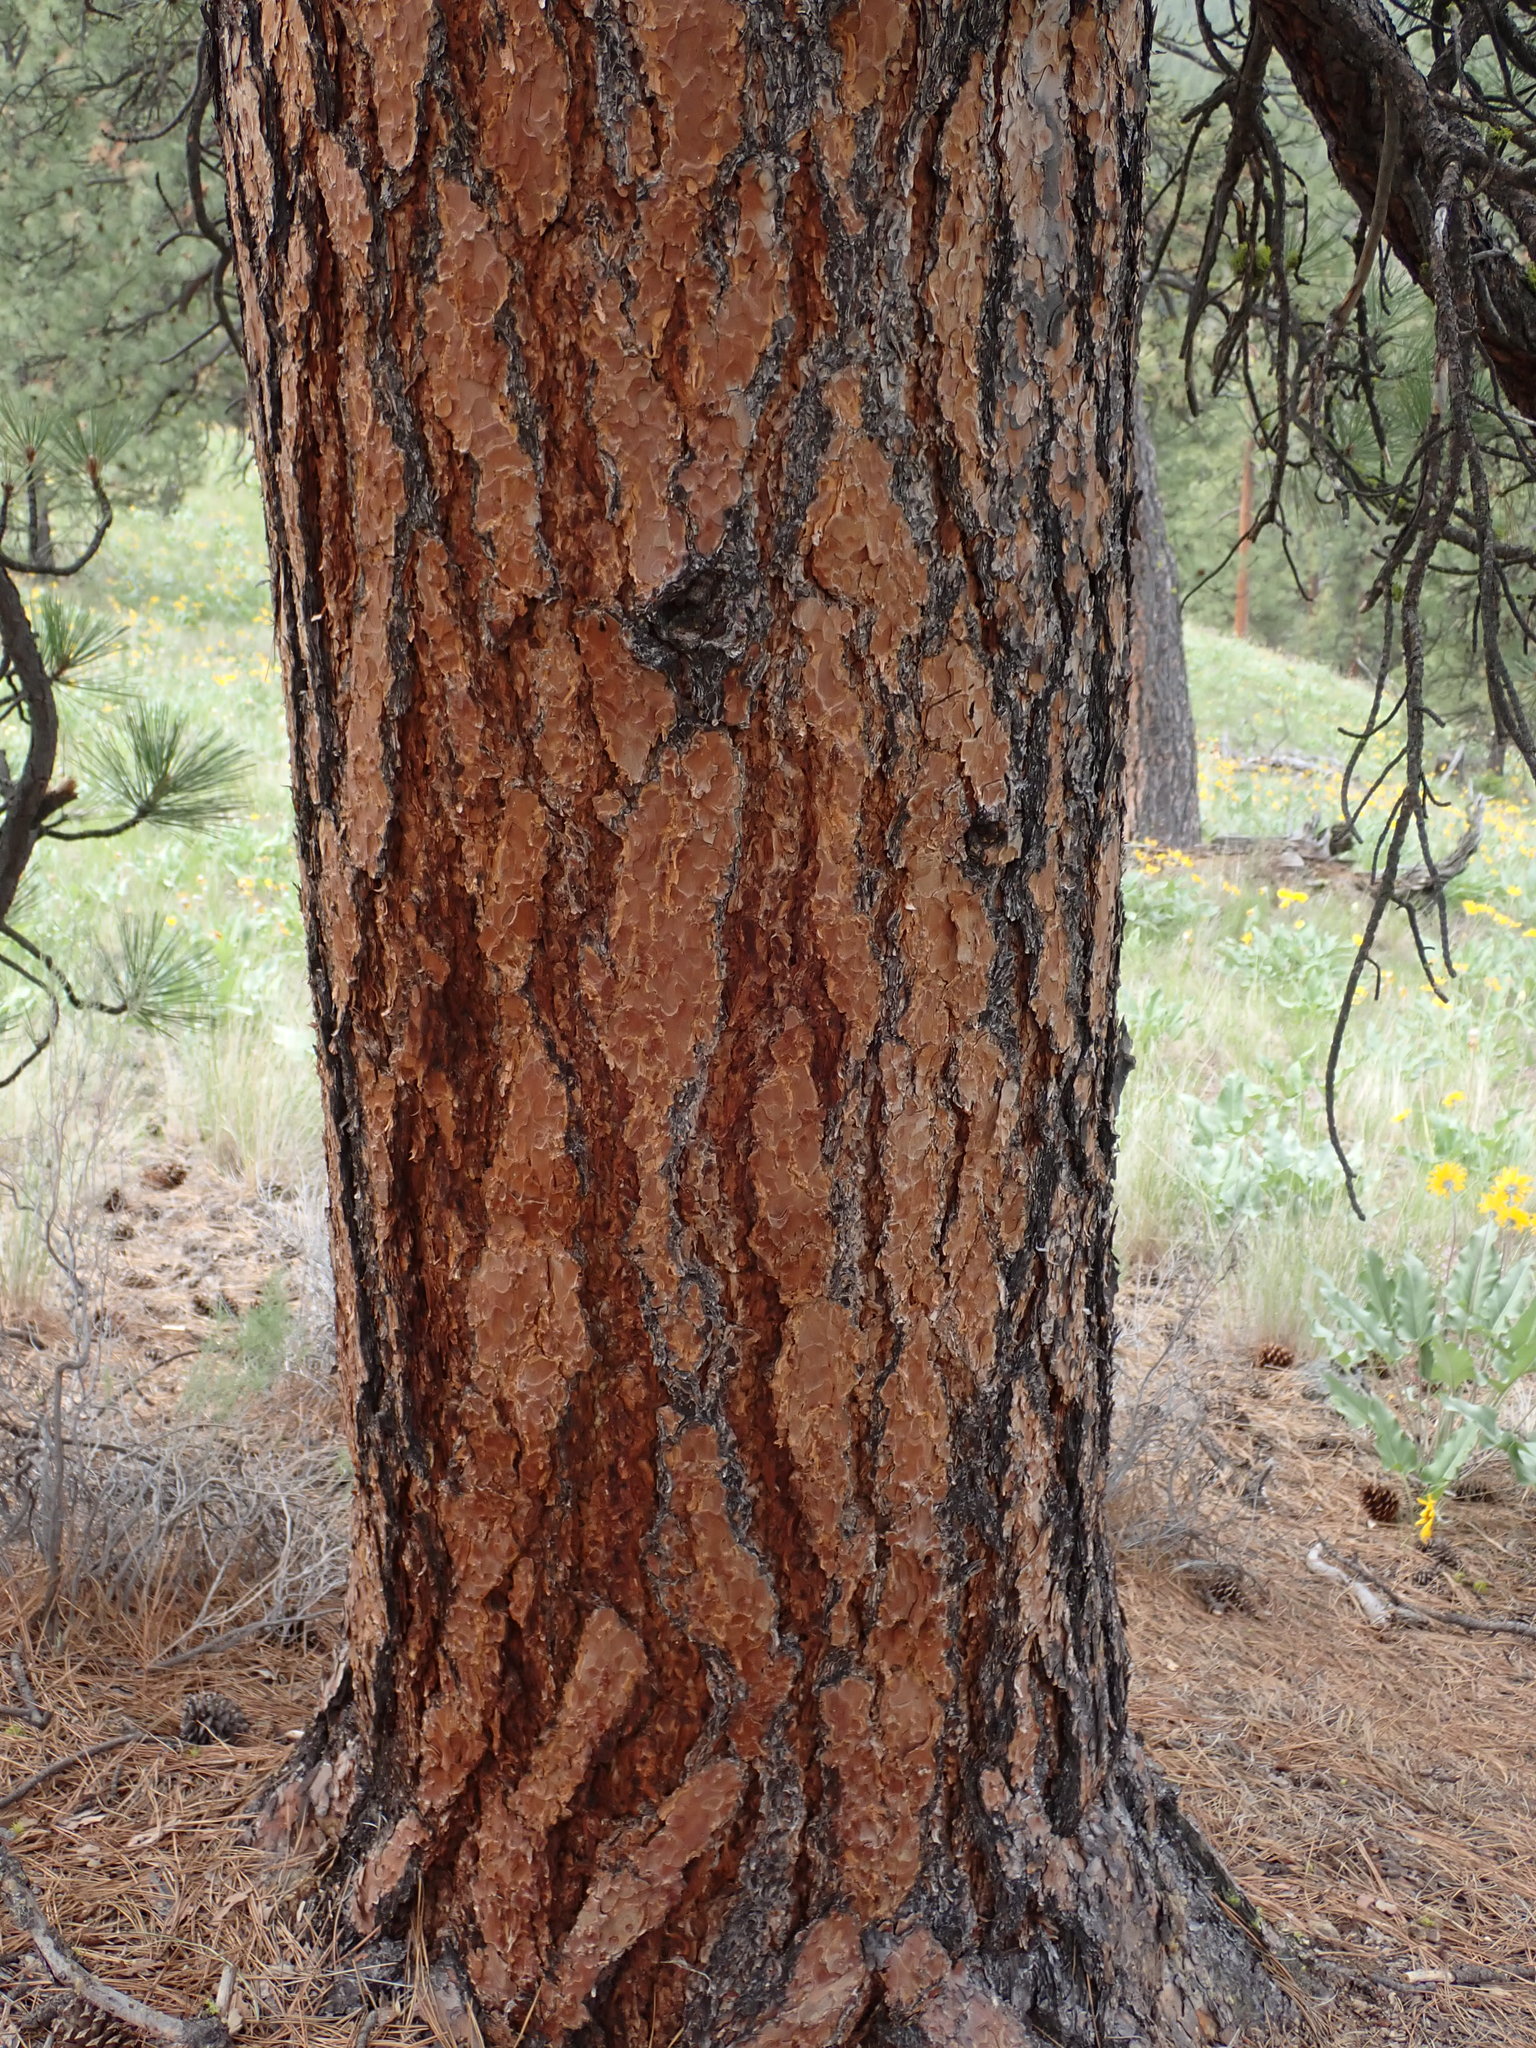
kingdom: Plantae
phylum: Tracheophyta
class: Pinopsida
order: Pinales
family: Pinaceae
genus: Pinus
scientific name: Pinus ponderosa
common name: Western yellow-pine
